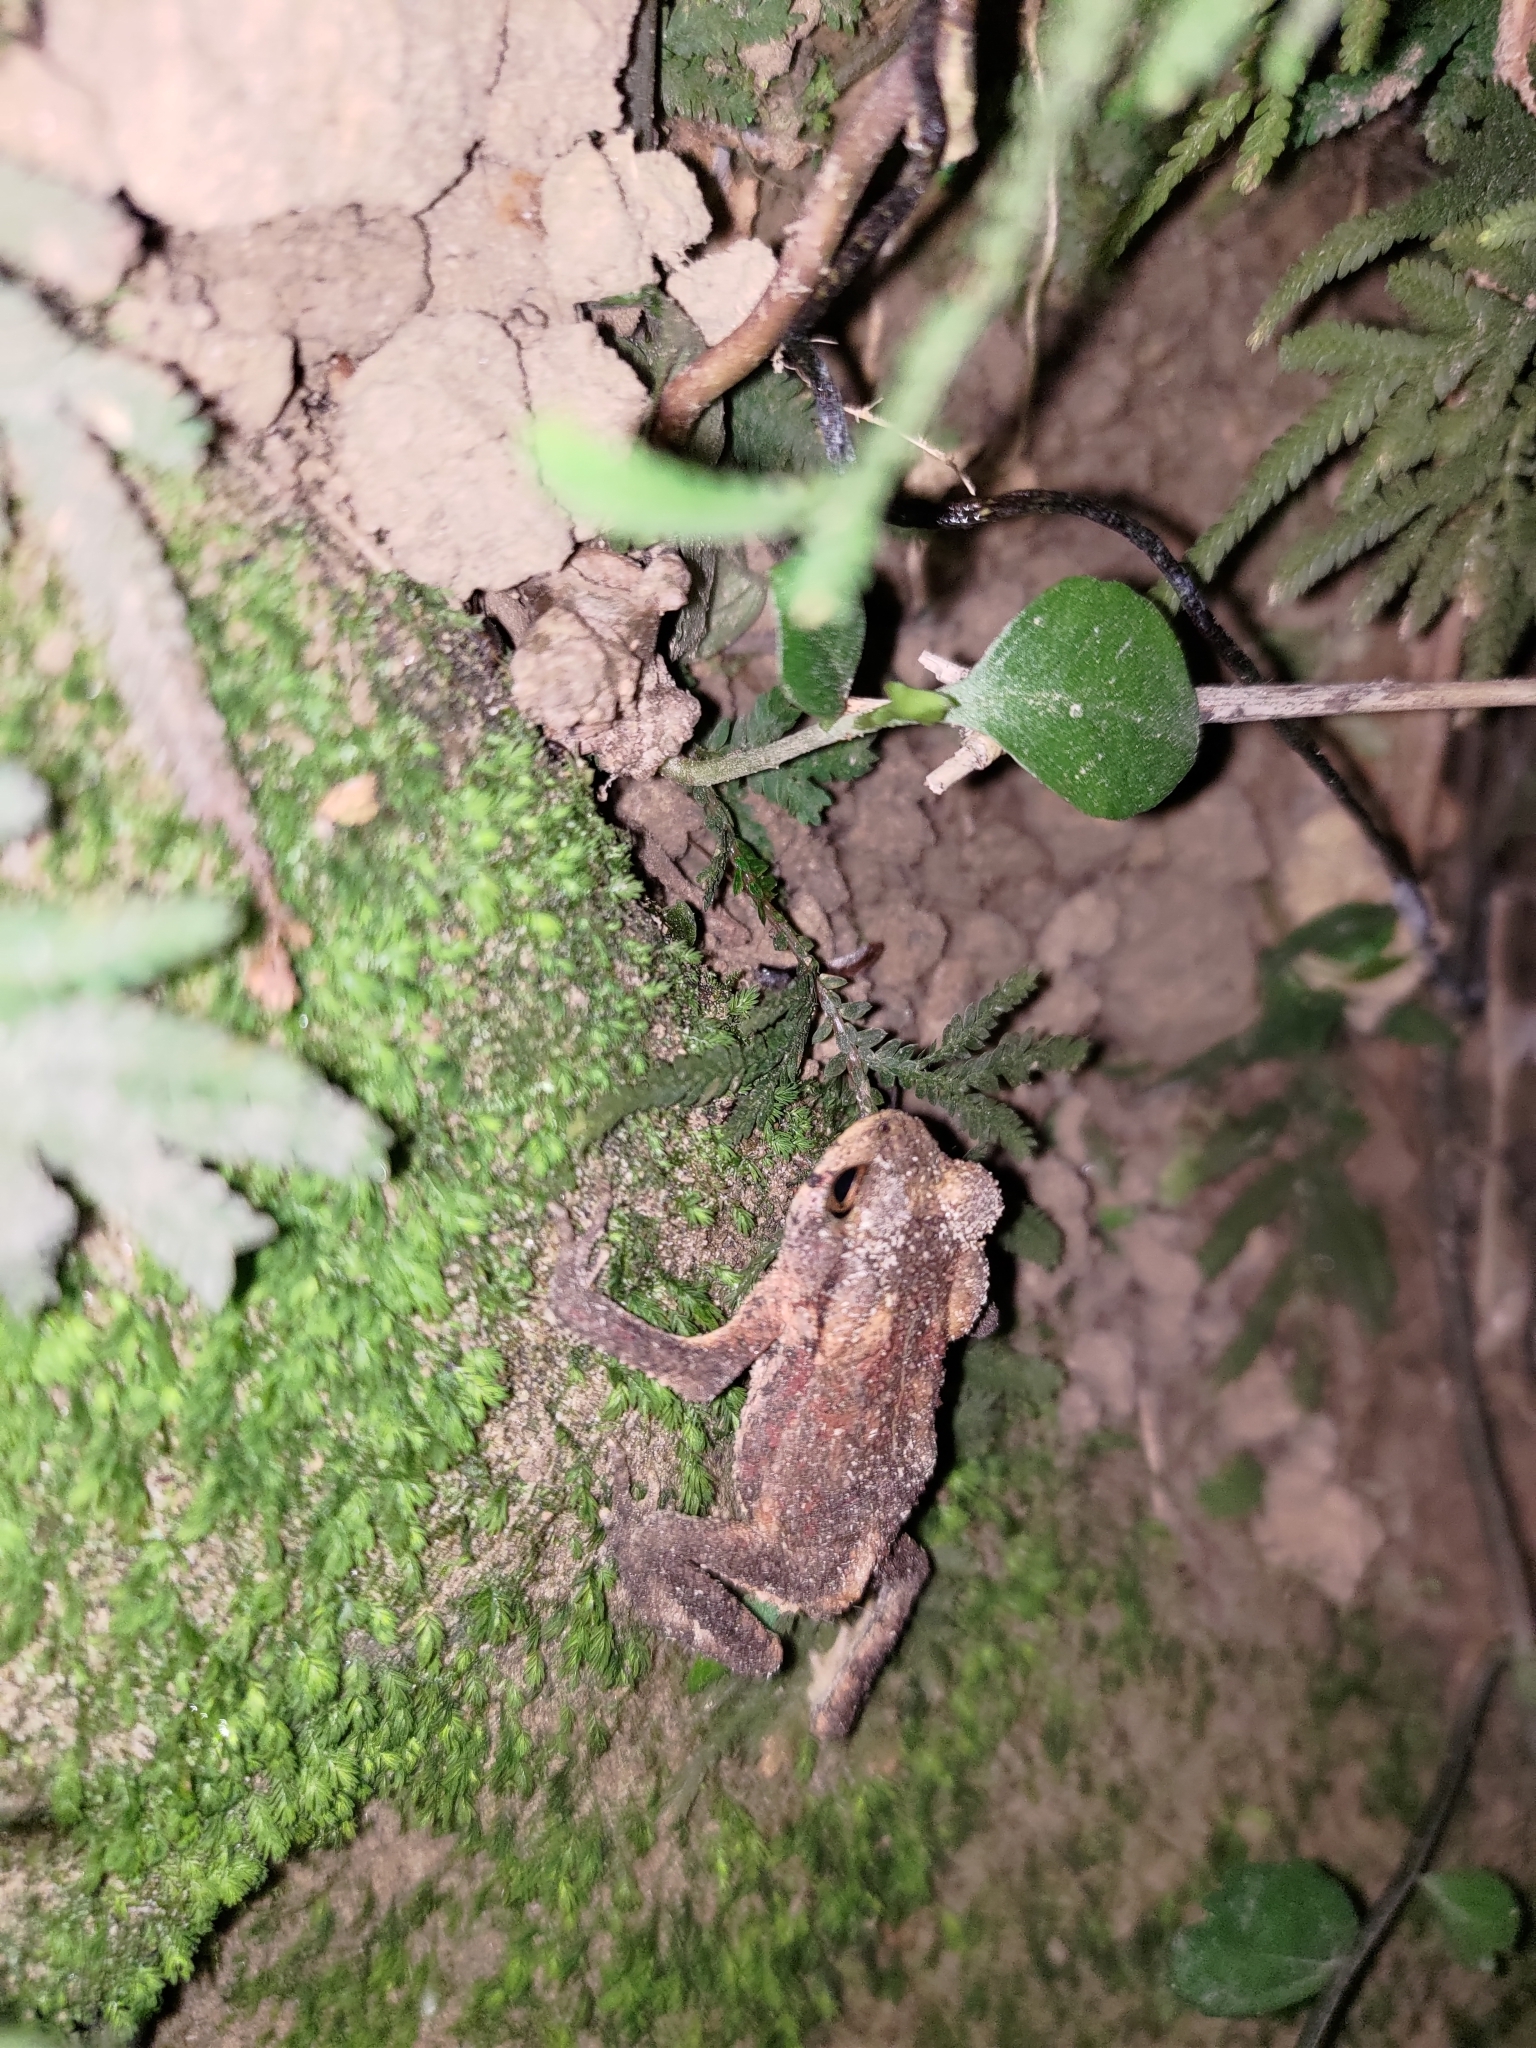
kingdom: Animalia
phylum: Chordata
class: Amphibia
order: Anura
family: Bufonidae
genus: Bufo
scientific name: Bufo bankorensis
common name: Bankor toad
